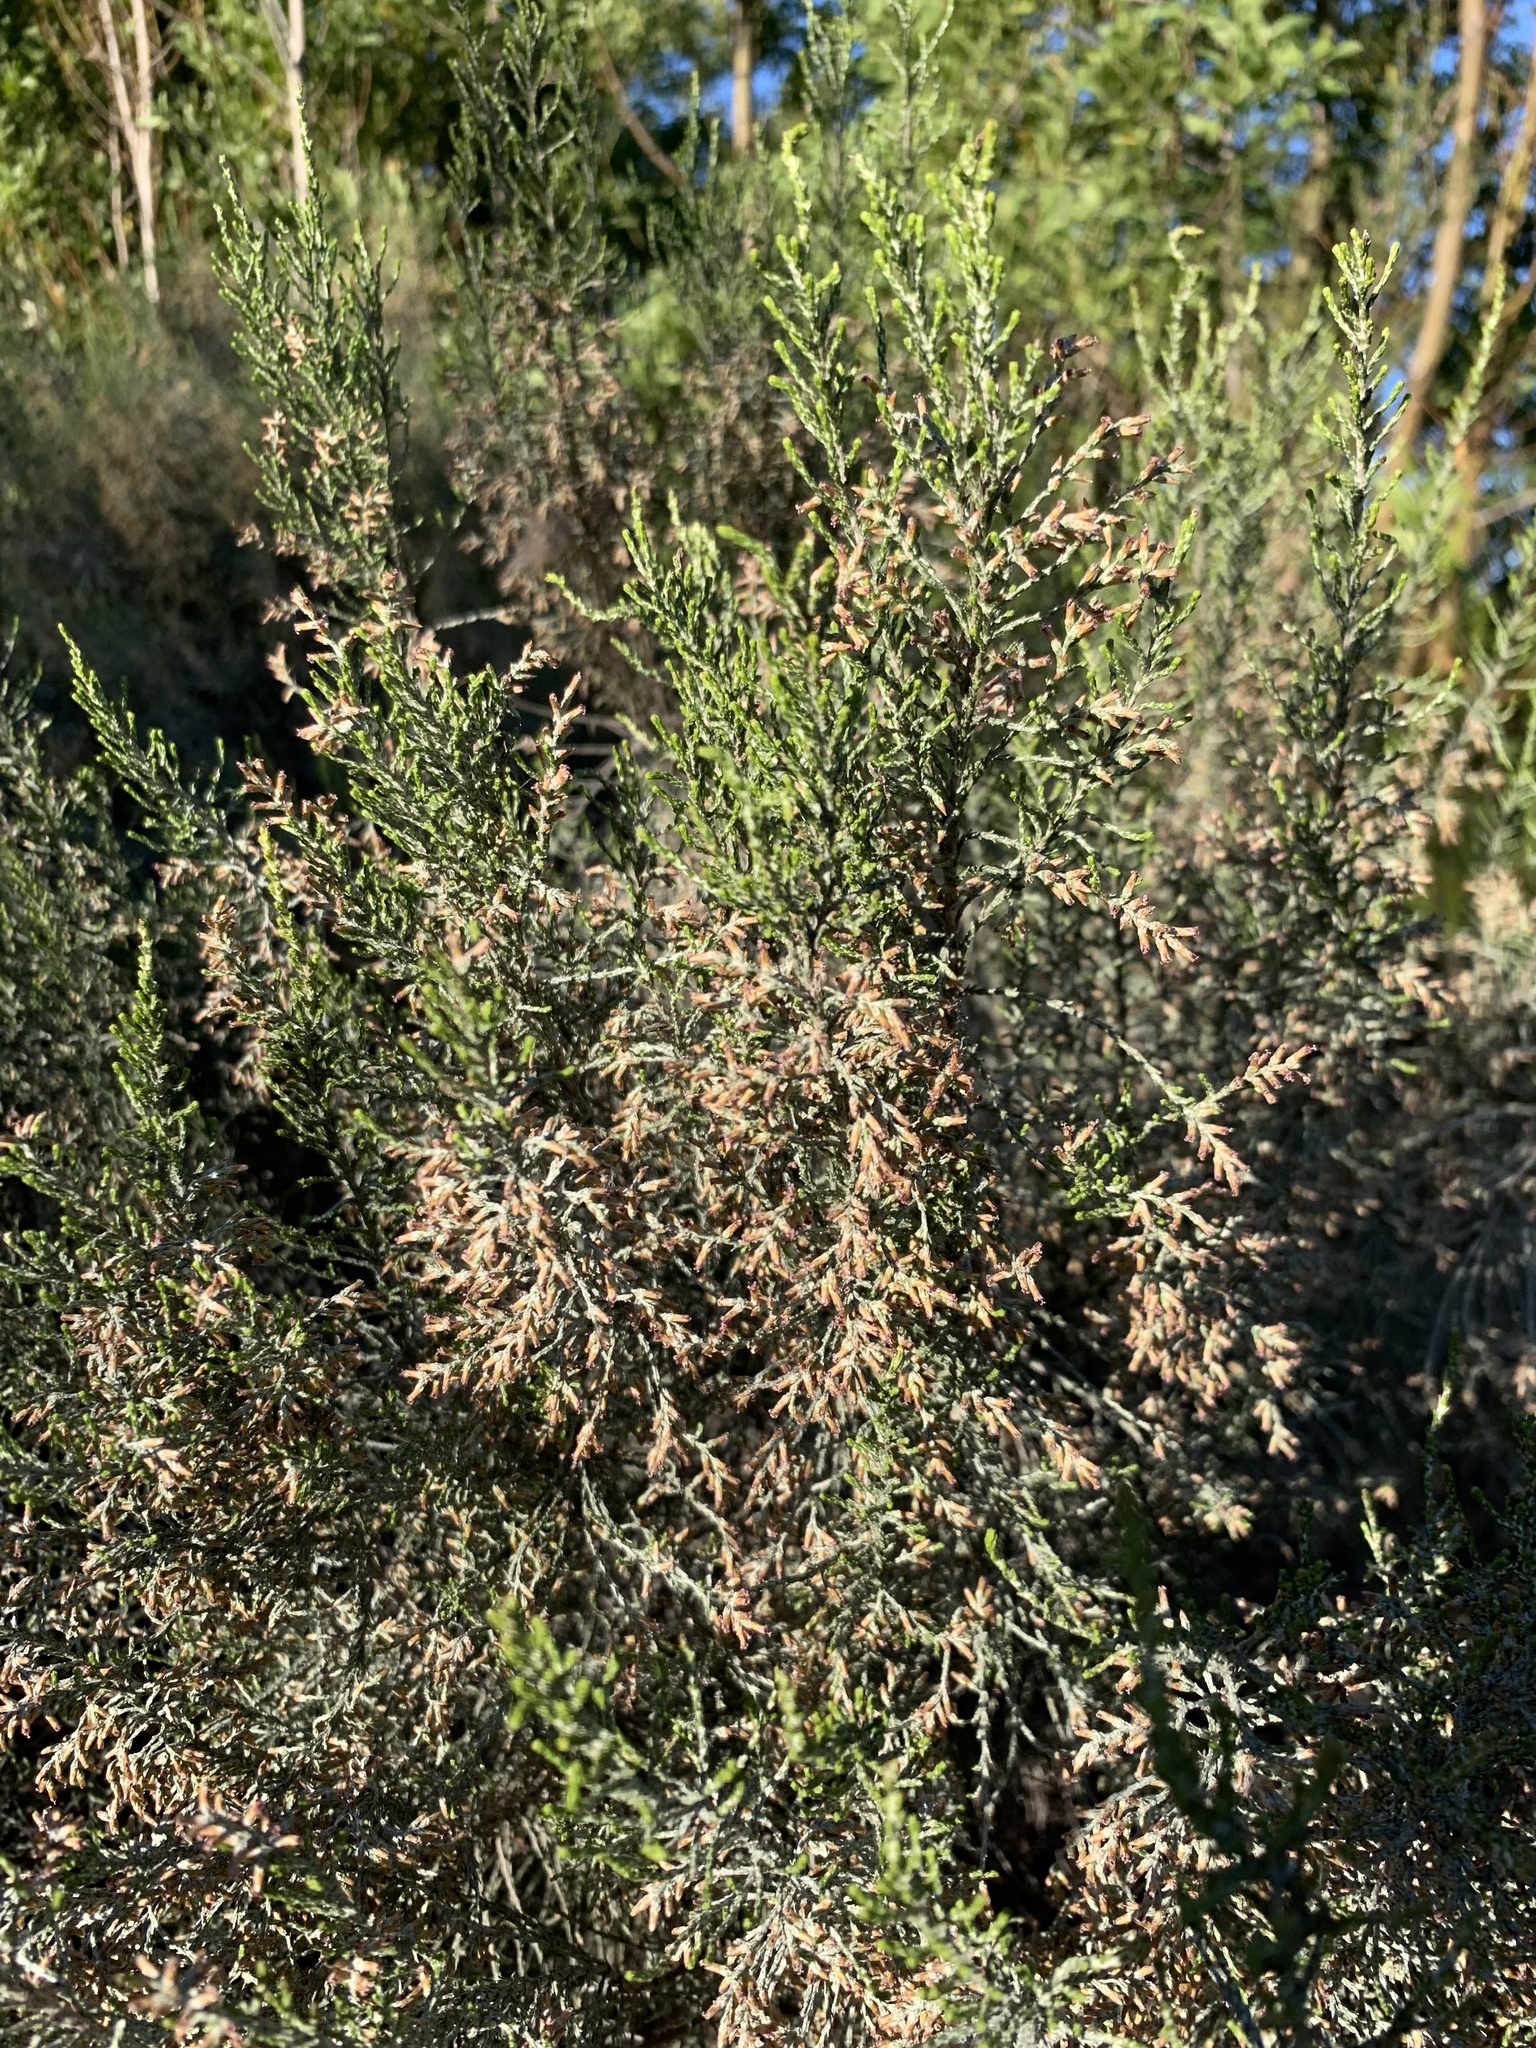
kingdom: Plantae
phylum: Tracheophyta
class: Magnoliopsida
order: Asterales
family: Asteraceae
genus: Dicerothamnus
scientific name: Dicerothamnus rhinocerotis
